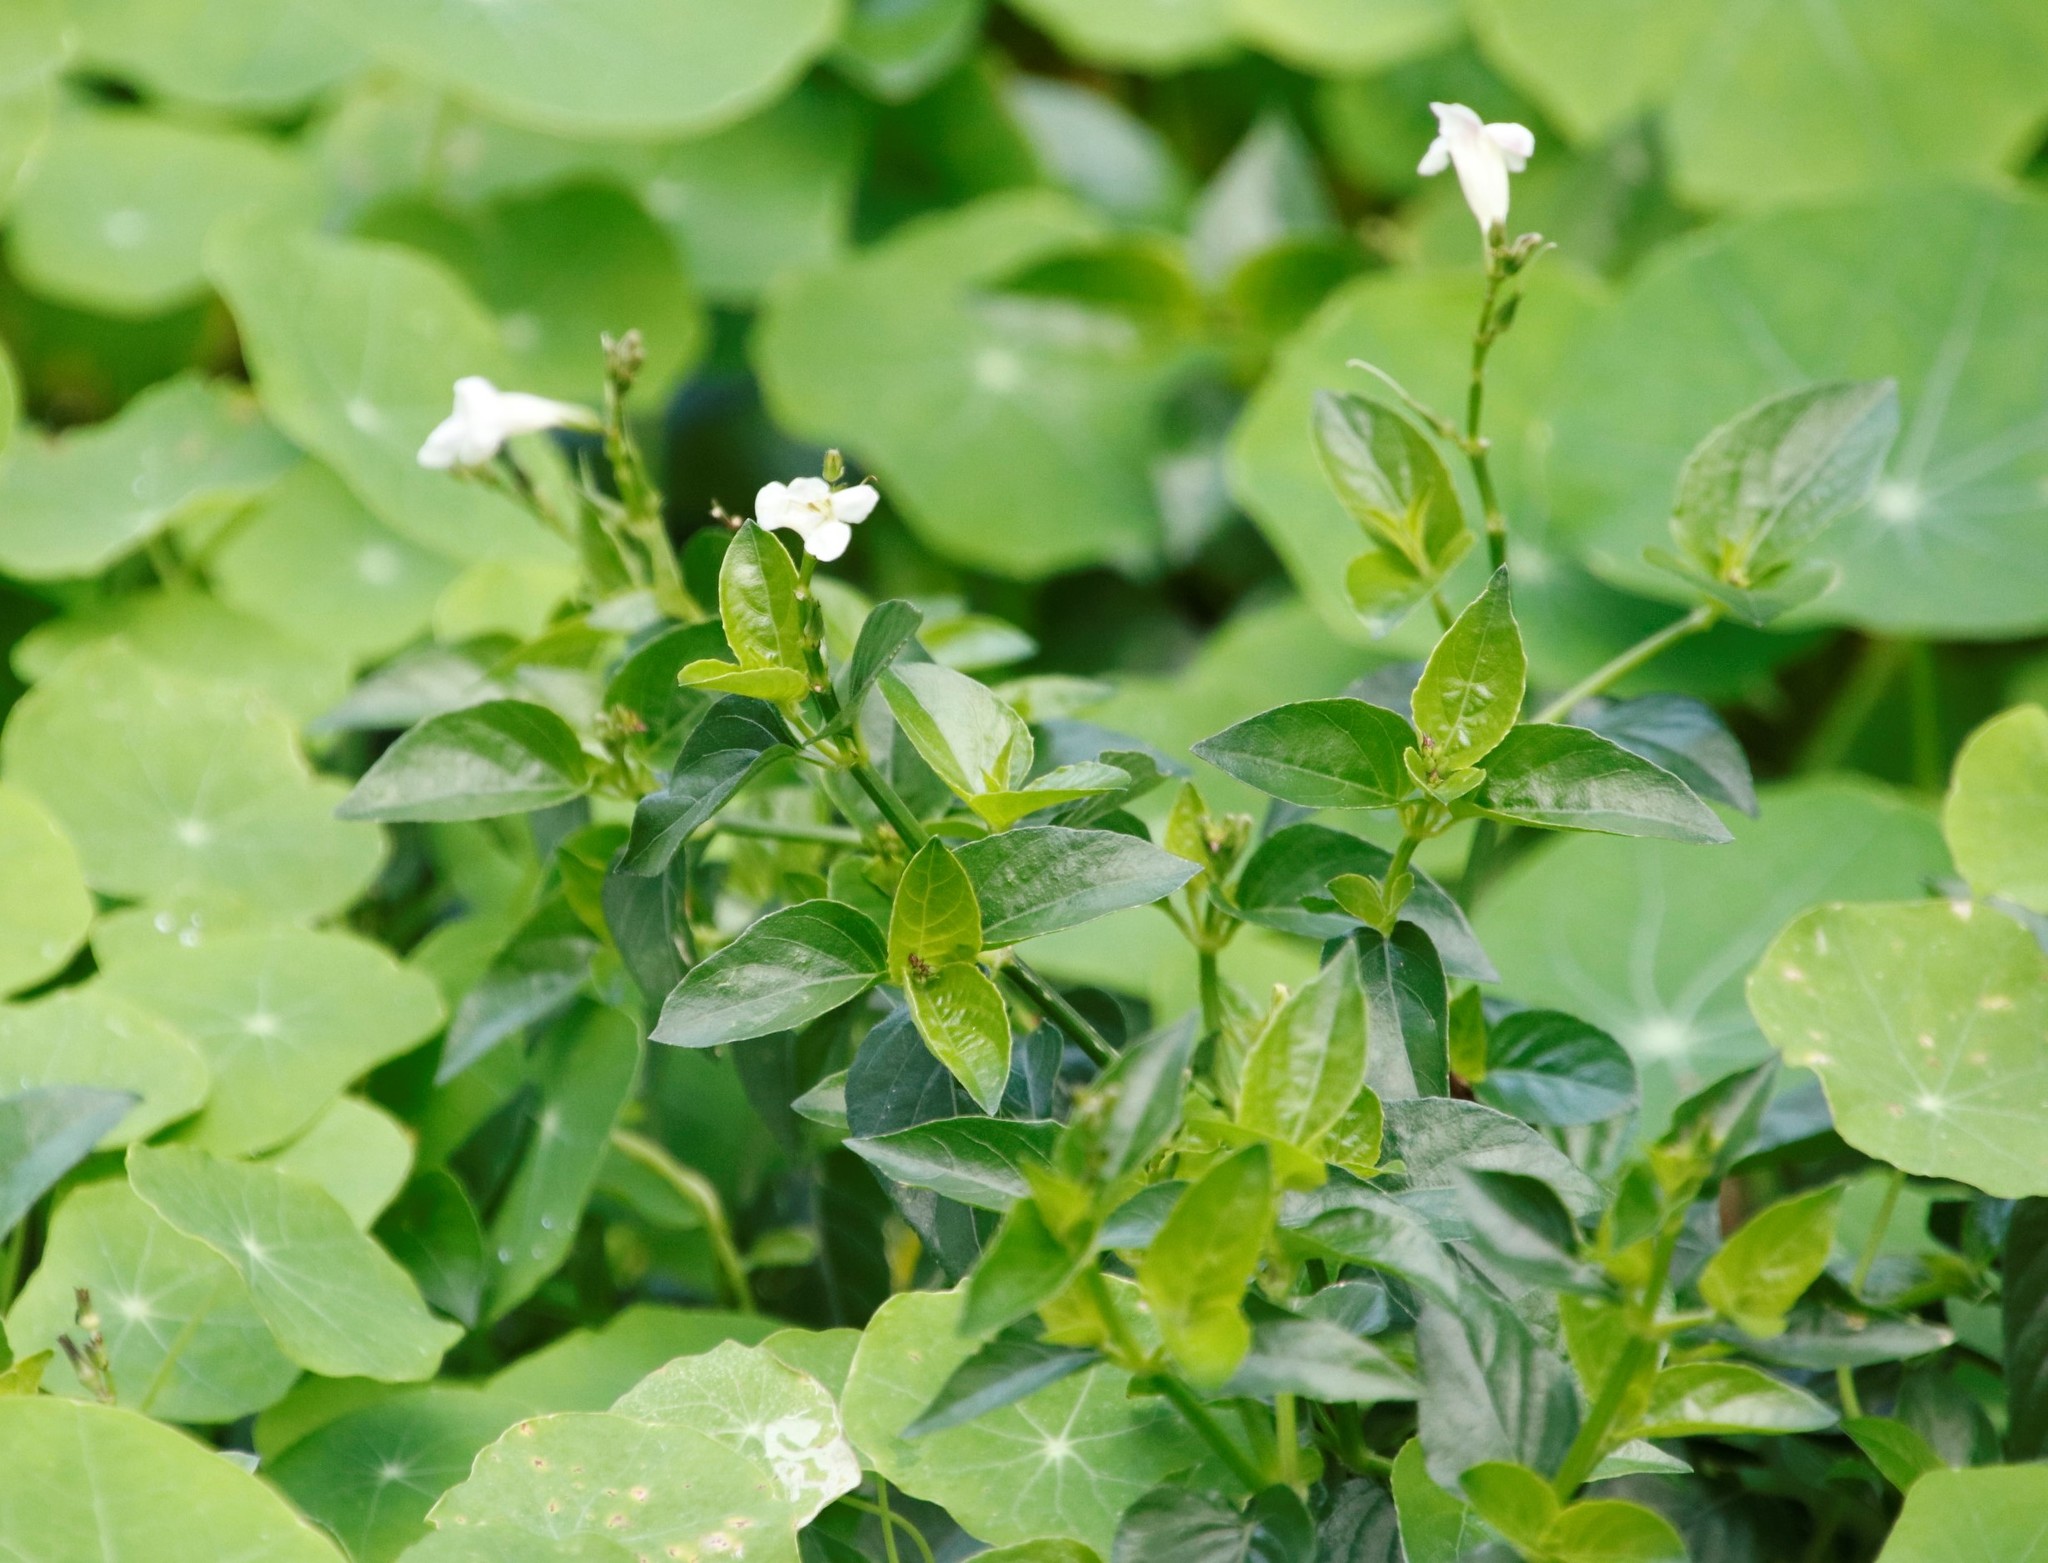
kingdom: Plantae
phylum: Tracheophyta
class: Magnoliopsida
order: Lamiales
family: Acanthaceae
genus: Asystasia
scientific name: Asystasia intrusa
